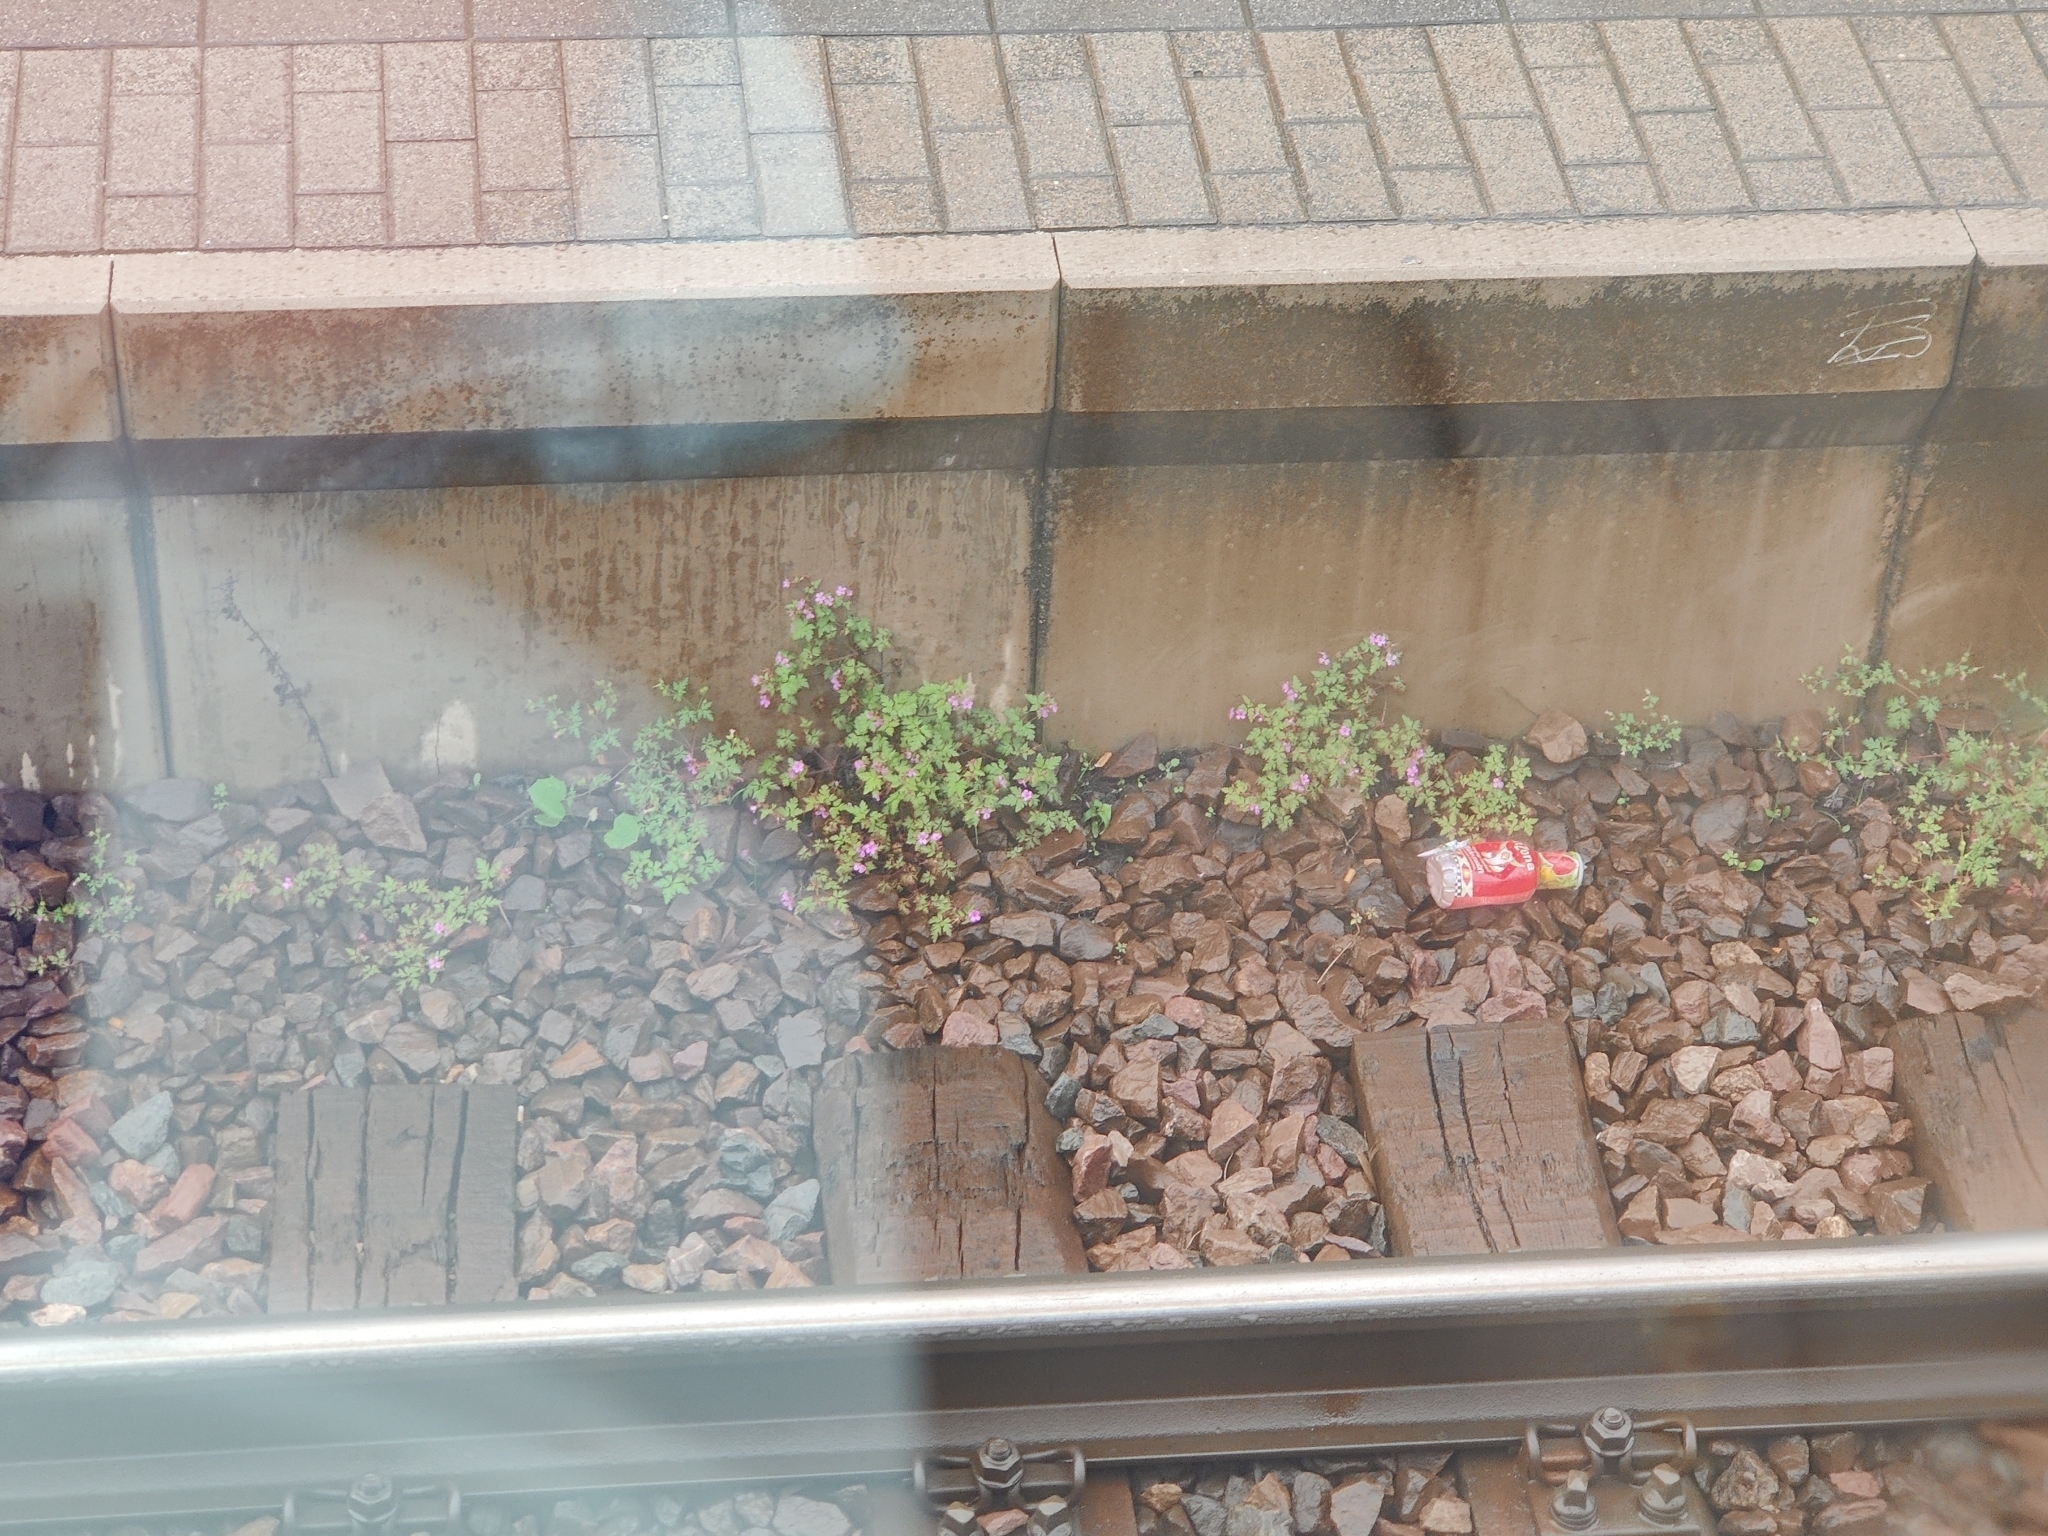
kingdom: Plantae
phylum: Tracheophyta
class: Magnoliopsida
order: Geraniales
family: Geraniaceae
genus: Geranium
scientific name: Geranium robertianum
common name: Herb-robert
